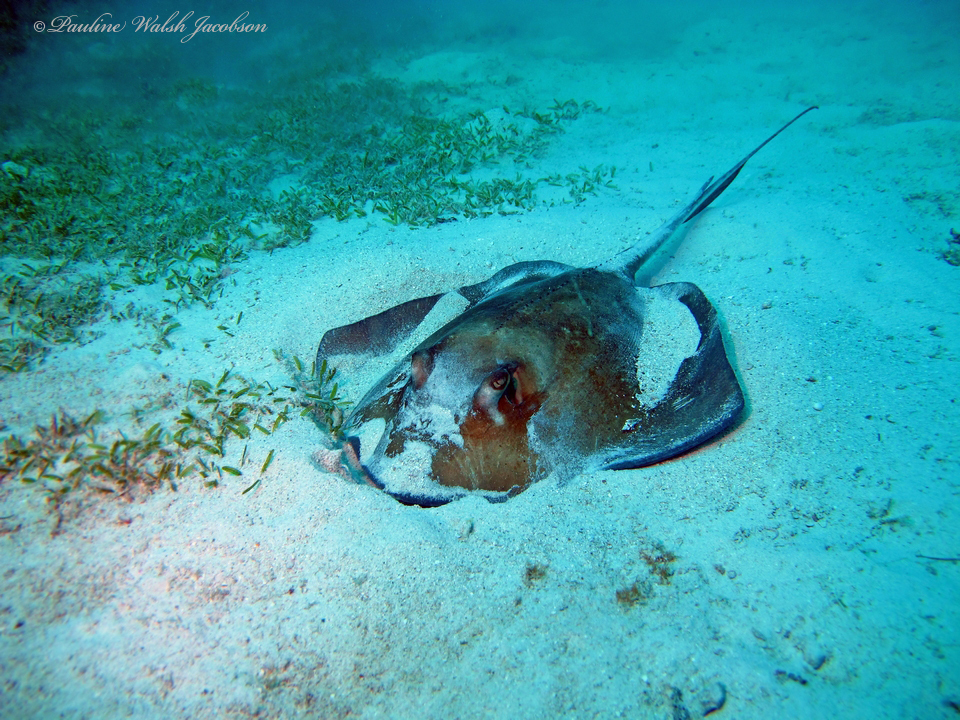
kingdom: Animalia
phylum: Chordata
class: Elasmobranchii
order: Myliobatiformes
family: Dasyatidae
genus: Hypanus
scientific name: Hypanus americanus
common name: Southern stingray
